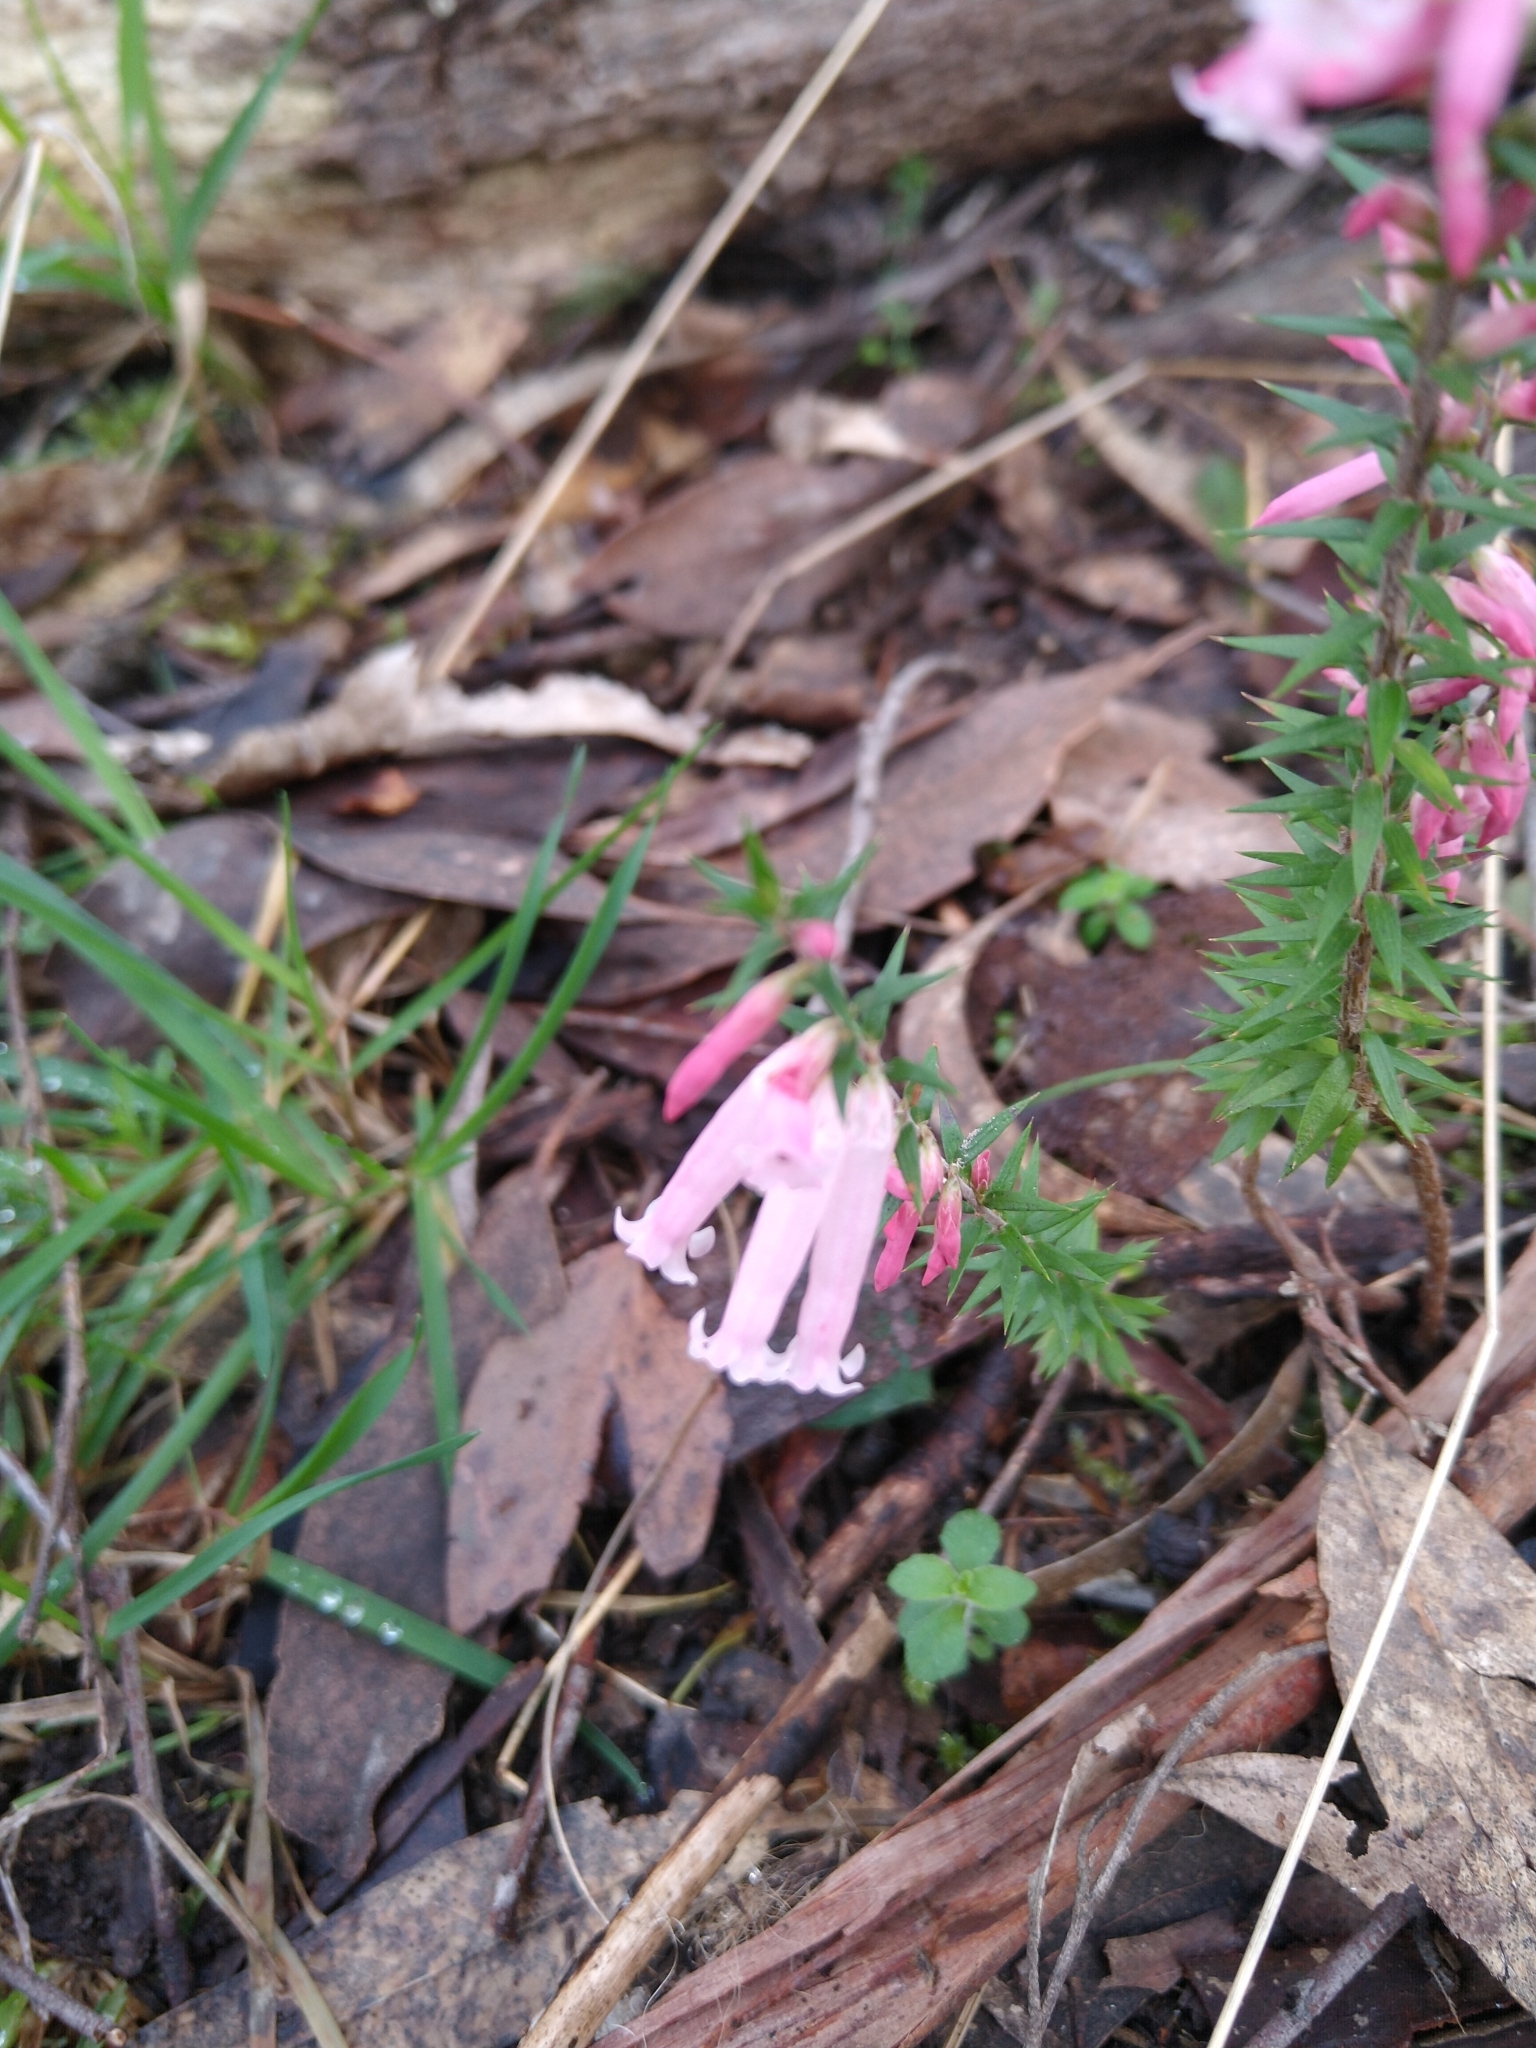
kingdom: Plantae
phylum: Tracheophyta
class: Magnoliopsida
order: Ericales
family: Ericaceae
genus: Epacris
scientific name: Epacris impressa
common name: Common-heath
